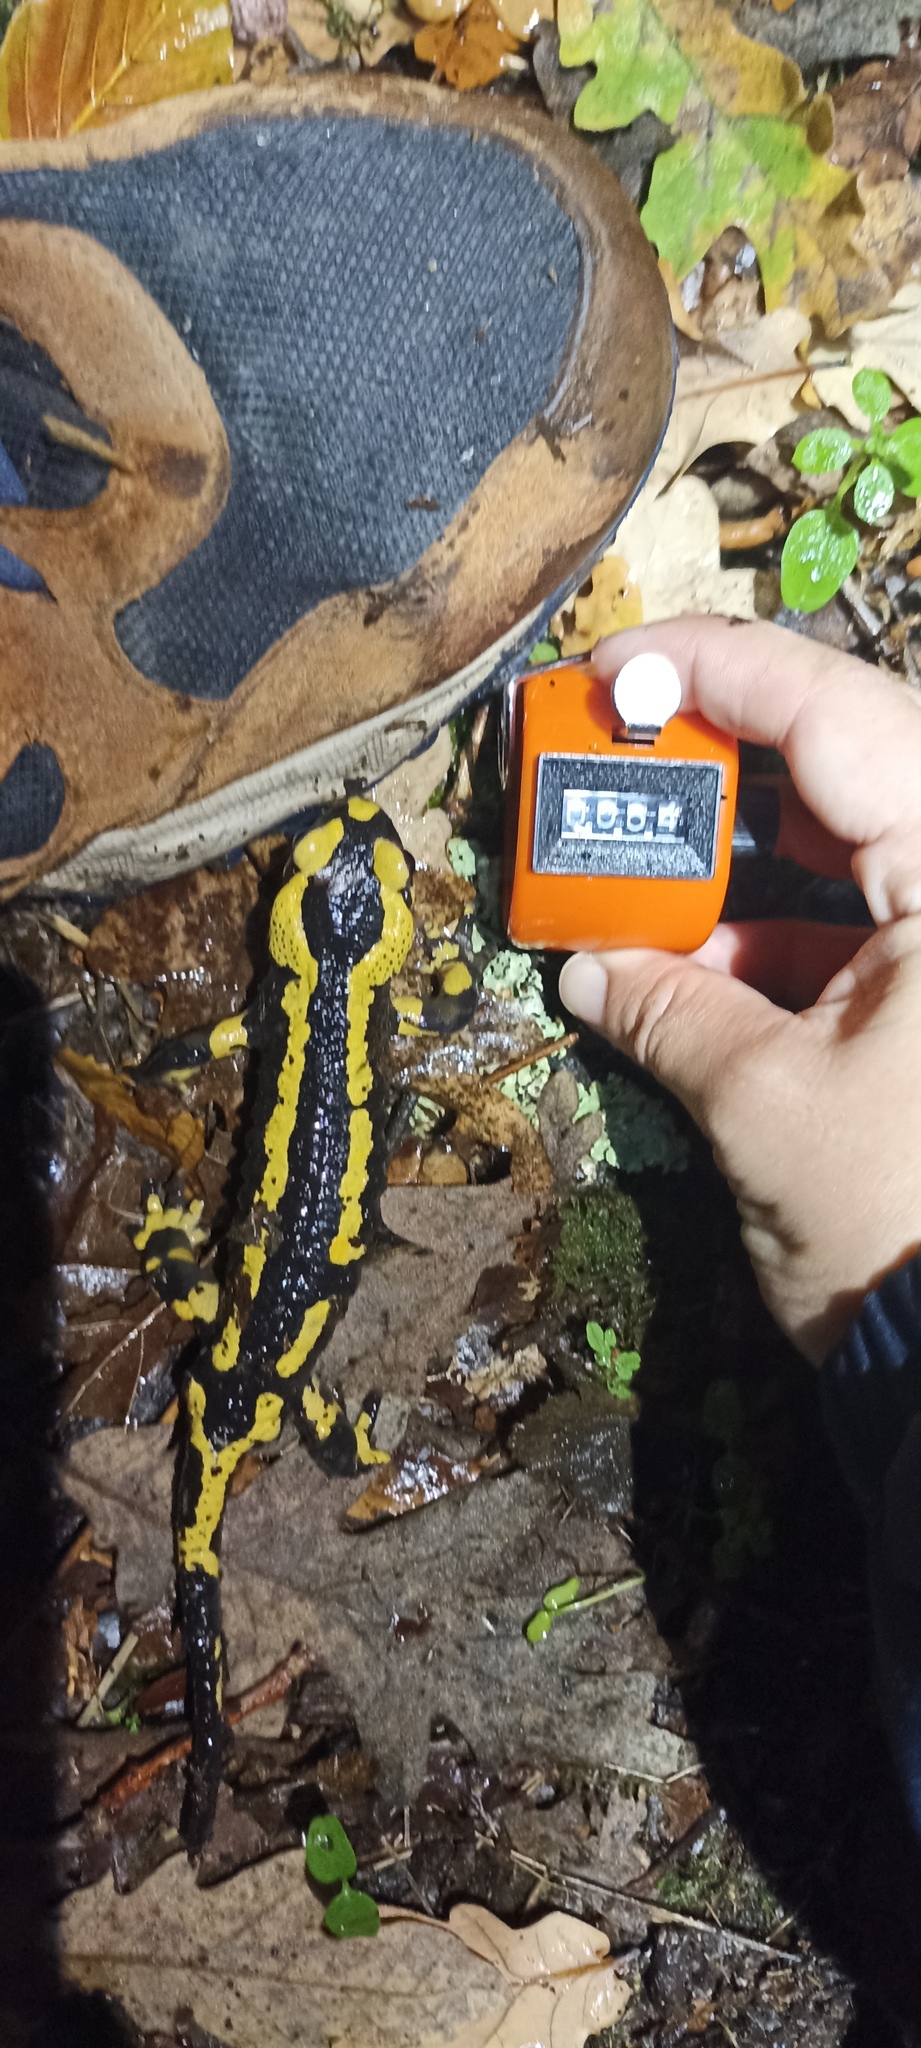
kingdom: Animalia
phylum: Chordata
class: Amphibia
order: Caudata
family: Salamandridae
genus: Salamandra
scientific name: Salamandra salamandra
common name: Fire salamander
